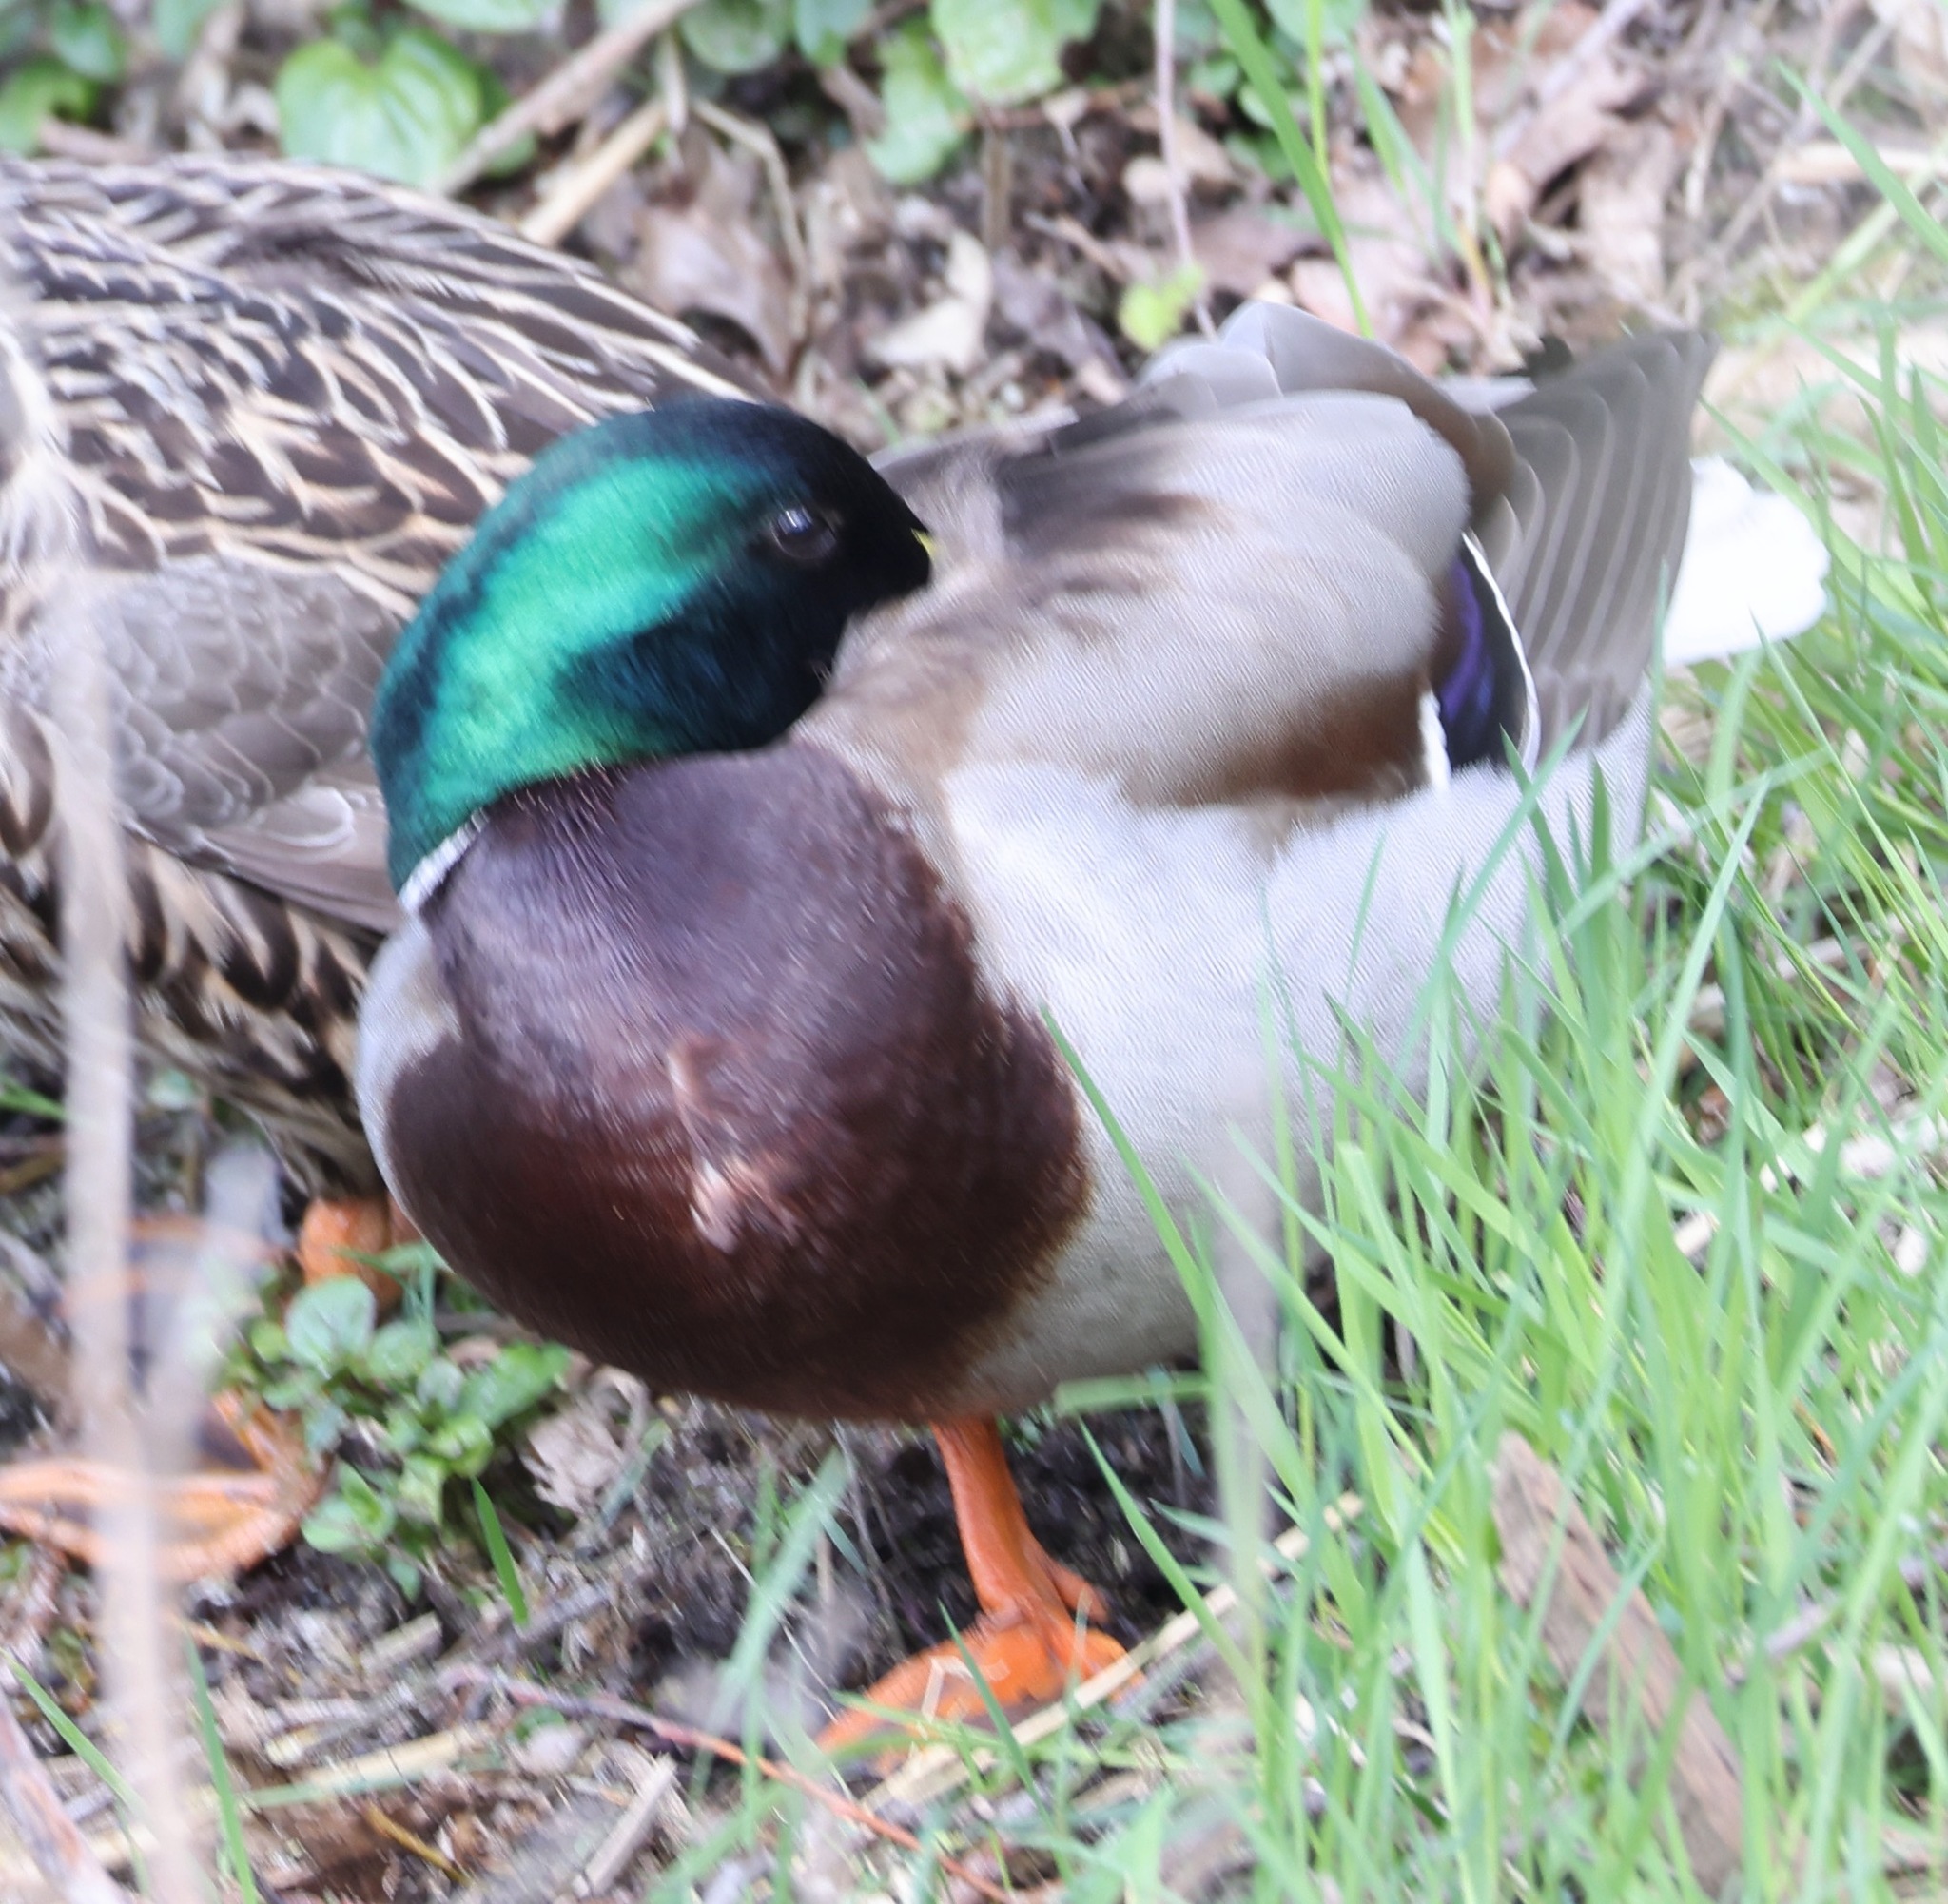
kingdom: Animalia
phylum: Chordata
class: Aves
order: Anseriformes
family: Anatidae
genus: Anas
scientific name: Anas platyrhynchos
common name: Mallard
